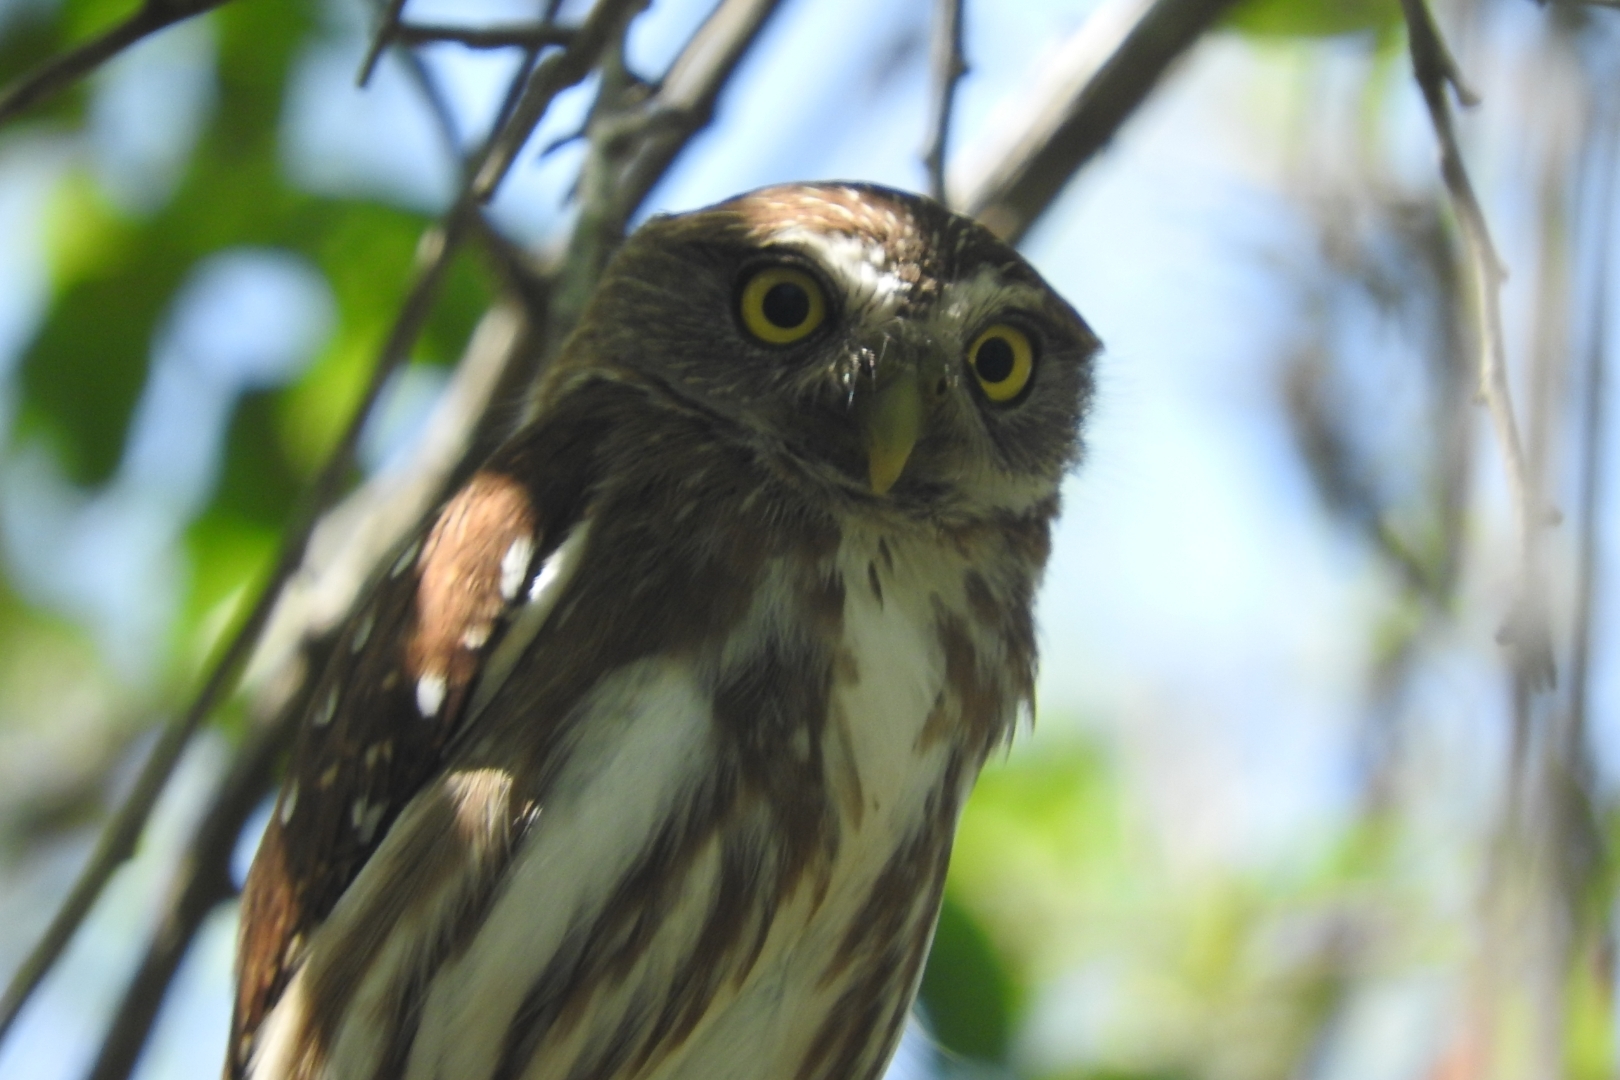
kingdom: Animalia
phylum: Chordata
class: Aves
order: Strigiformes
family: Strigidae
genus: Glaucidium
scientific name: Glaucidium brasilianum
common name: Ferruginous pygmy-owl
